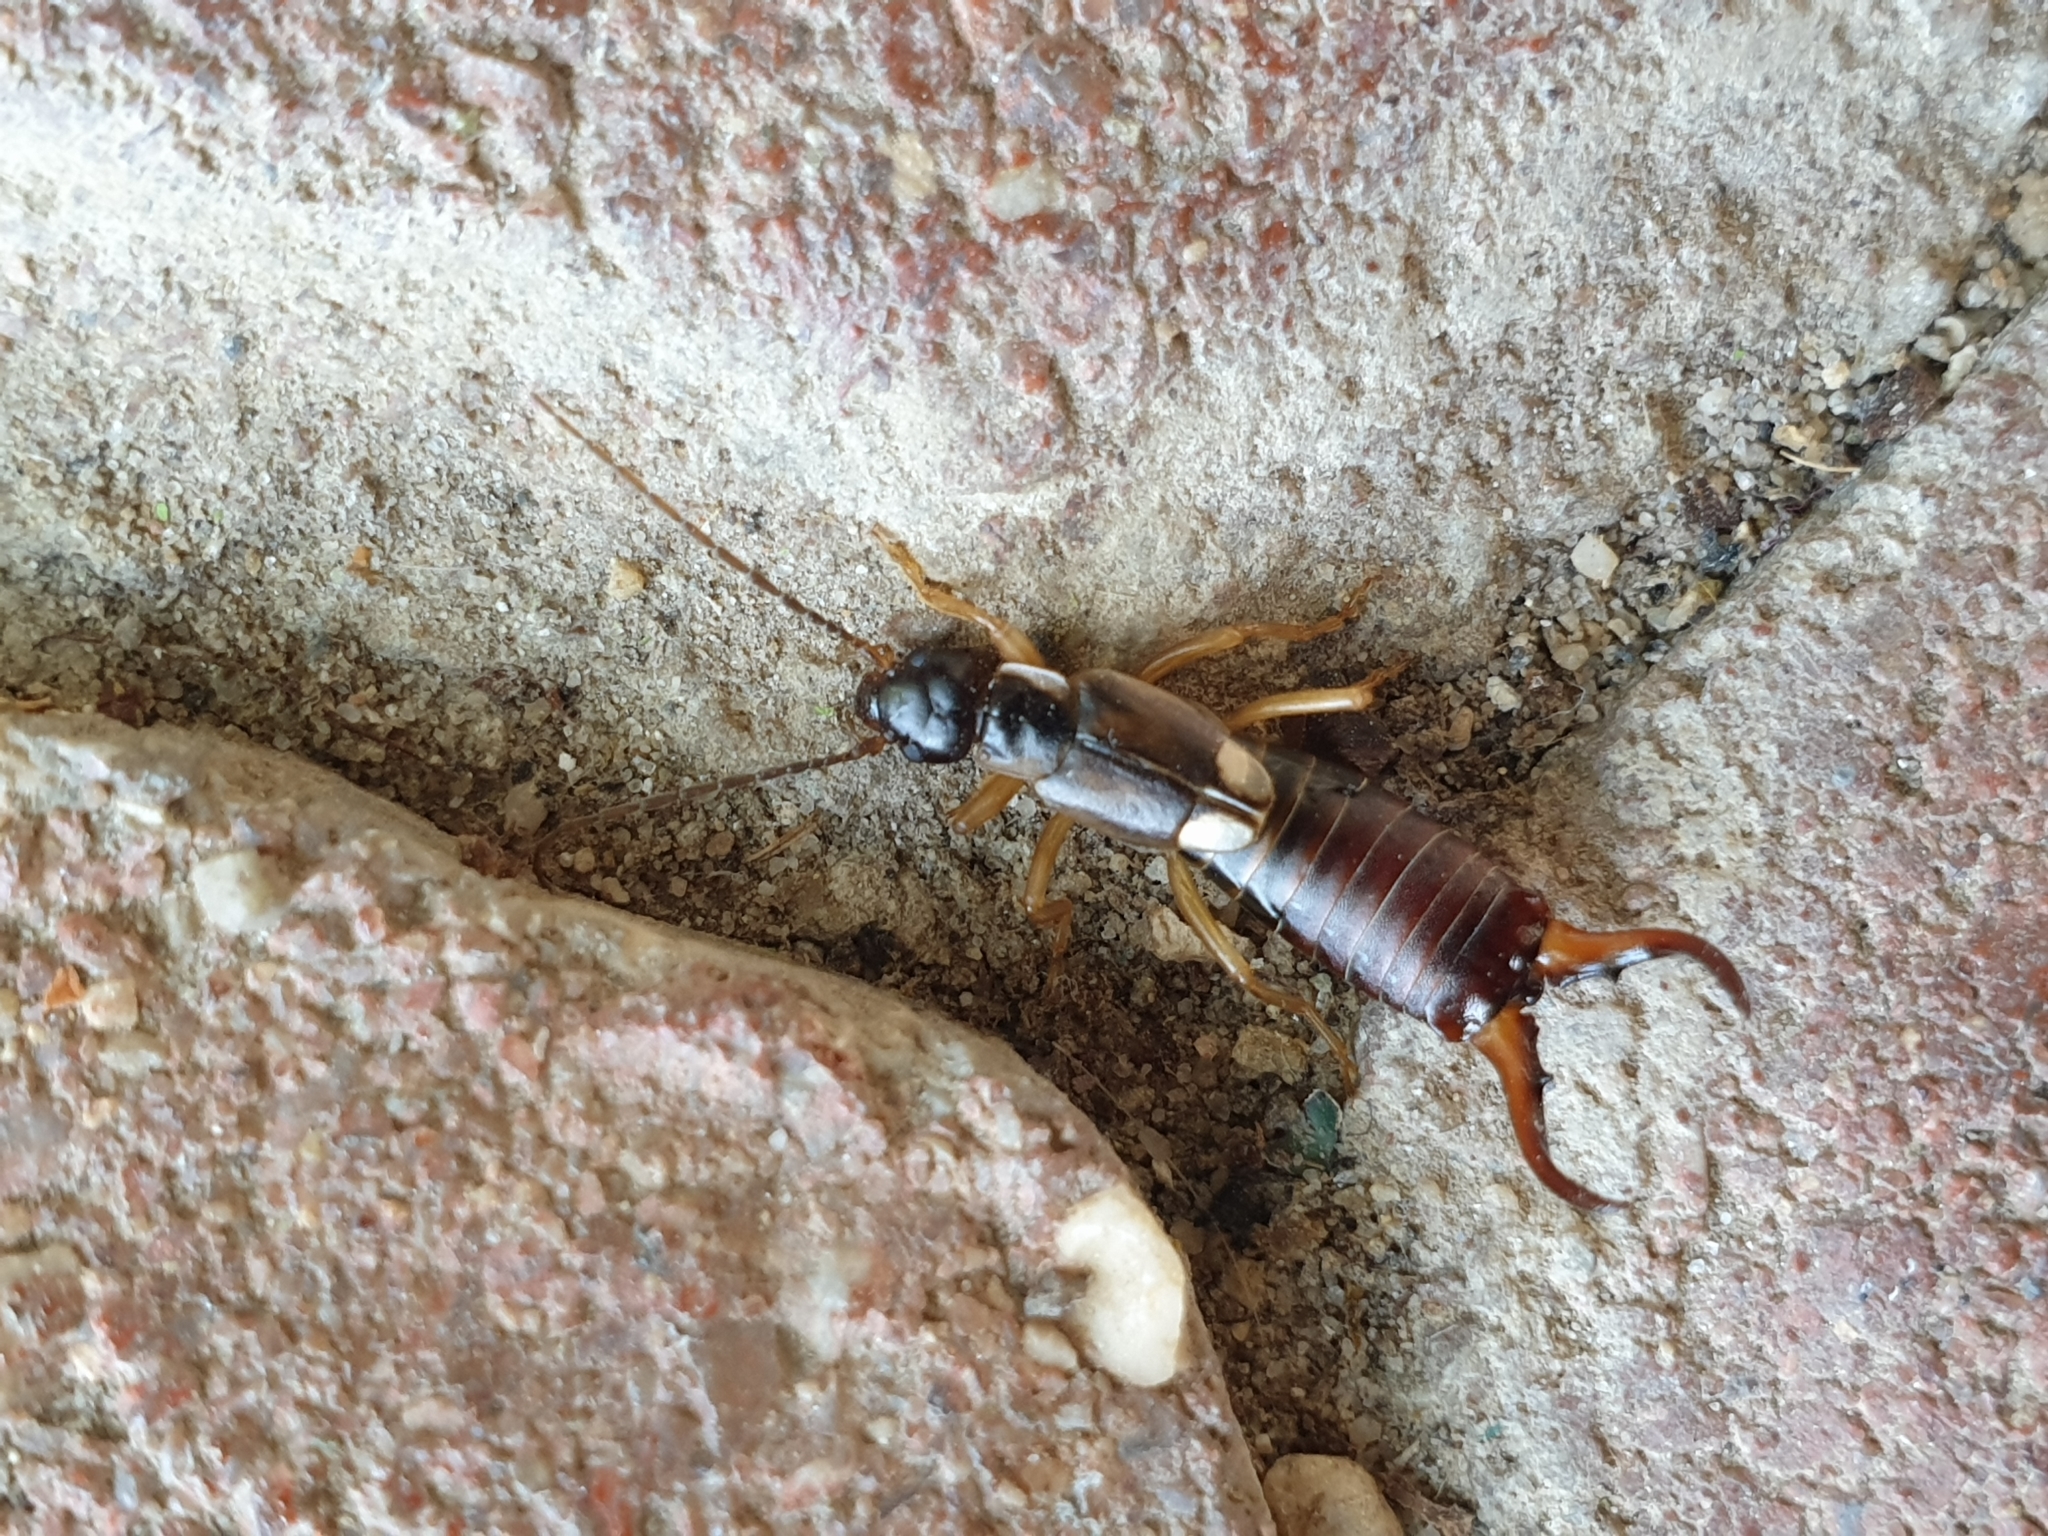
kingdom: Animalia
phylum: Arthropoda
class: Insecta
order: Dermaptera
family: Forficulidae
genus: Forficula
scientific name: Forficula
